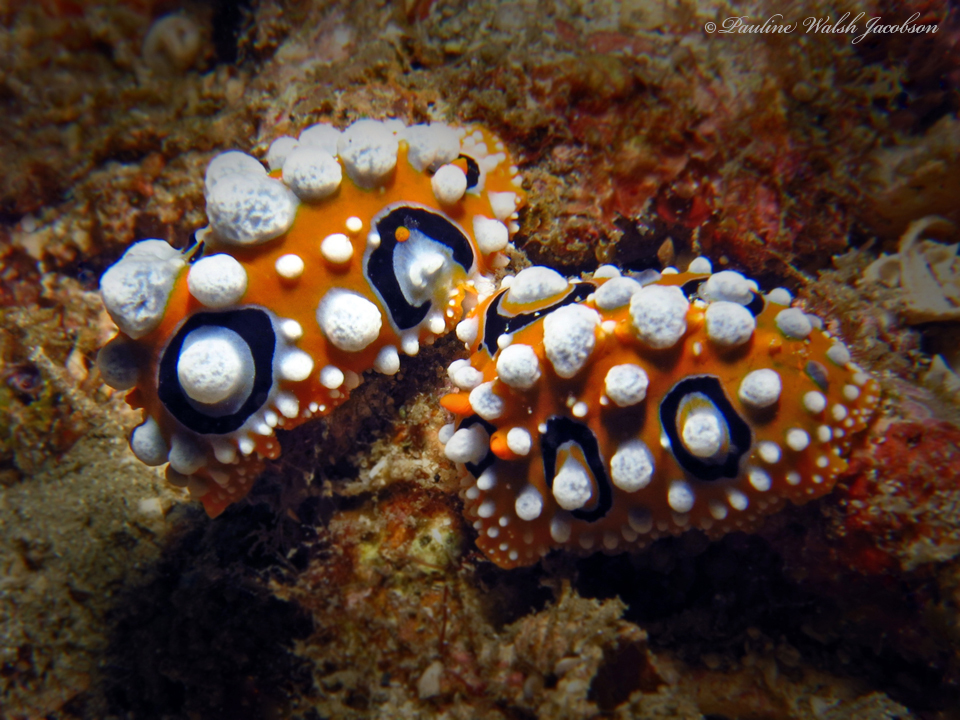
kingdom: Animalia
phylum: Mollusca
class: Gastropoda
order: Nudibranchia
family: Phyllidiidae
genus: Phyllidia
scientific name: Phyllidia ocellata
